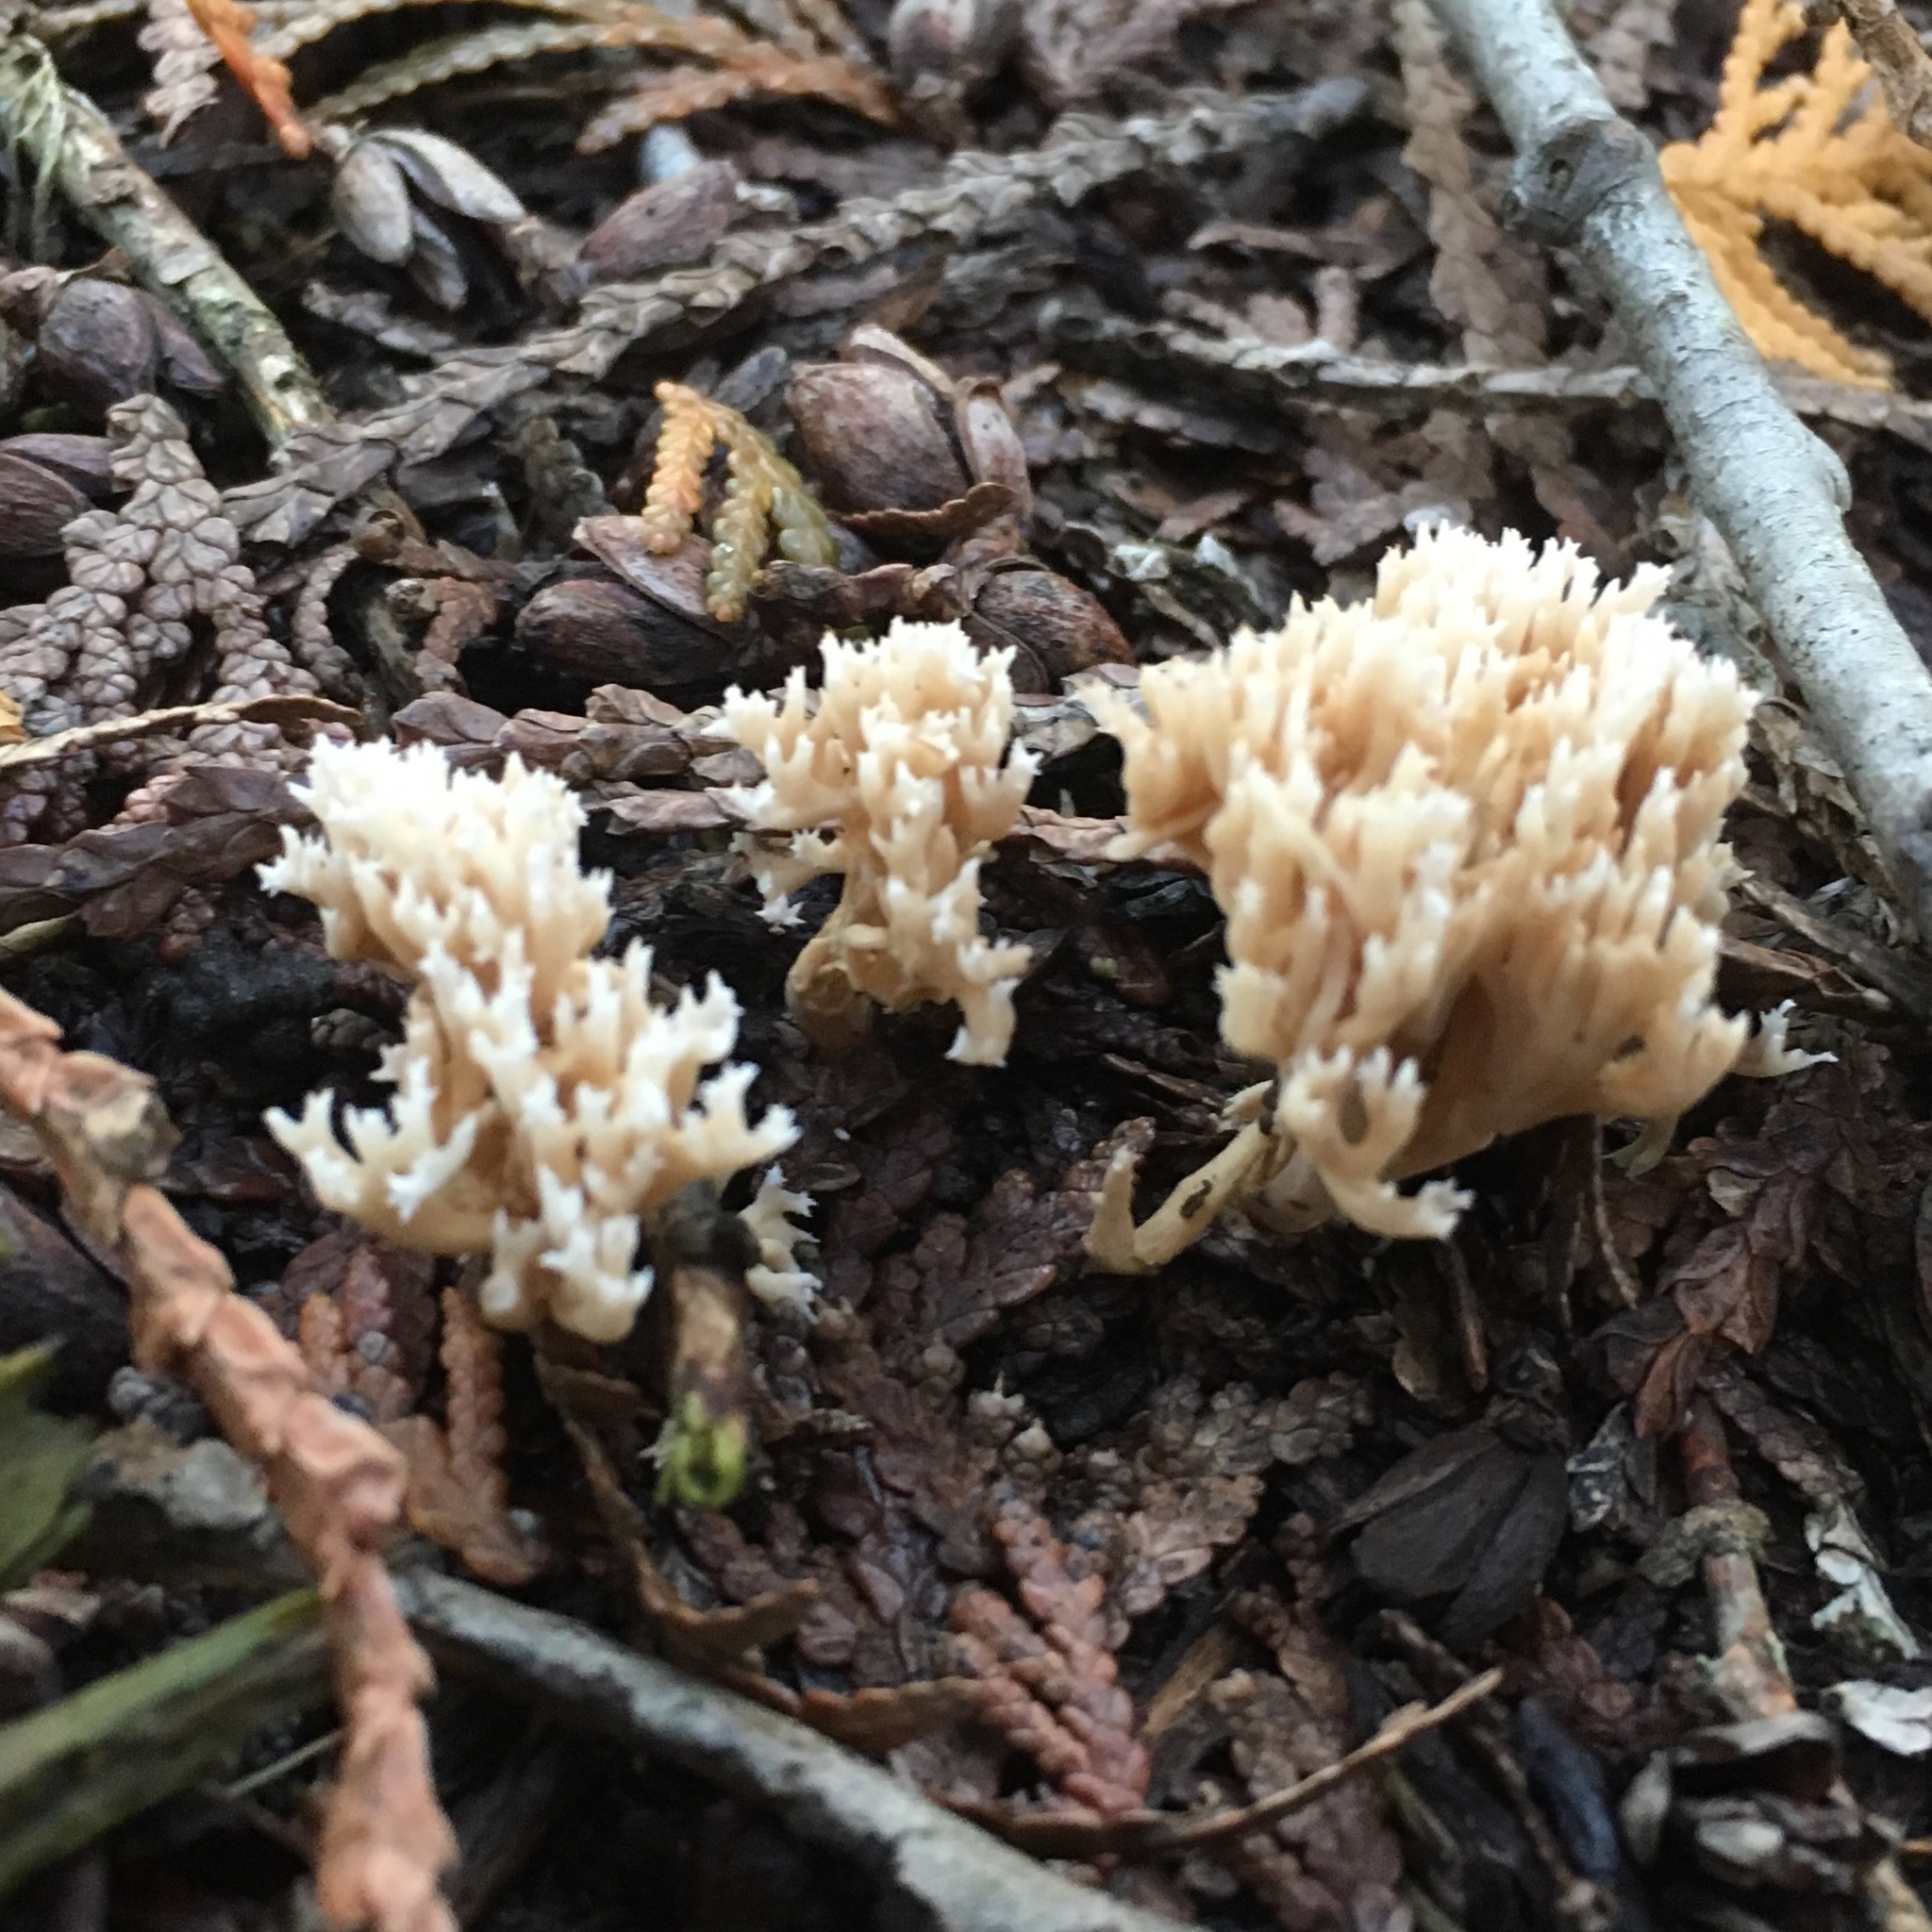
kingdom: Fungi
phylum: Basidiomycota
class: Agaricomycetes
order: Russulales
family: Auriscalpiaceae
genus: Artomyces
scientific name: Artomyces pyxidatus
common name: Crown-tipped coral fungus
